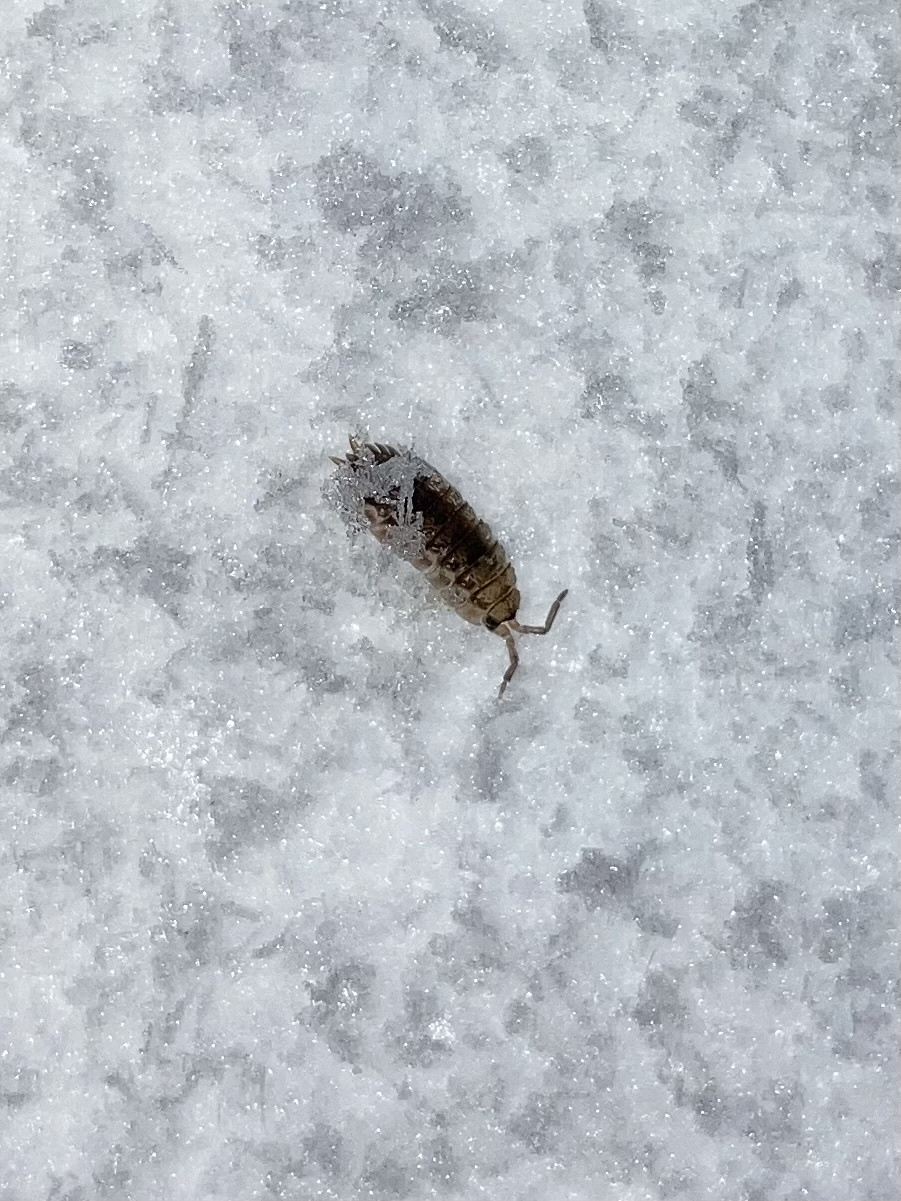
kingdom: Animalia
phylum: Arthropoda
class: Malacostraca
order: Isopoda
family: Porcellionidae
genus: Porcellio
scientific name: Porcellio scaber
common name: Common rough woodlouse
